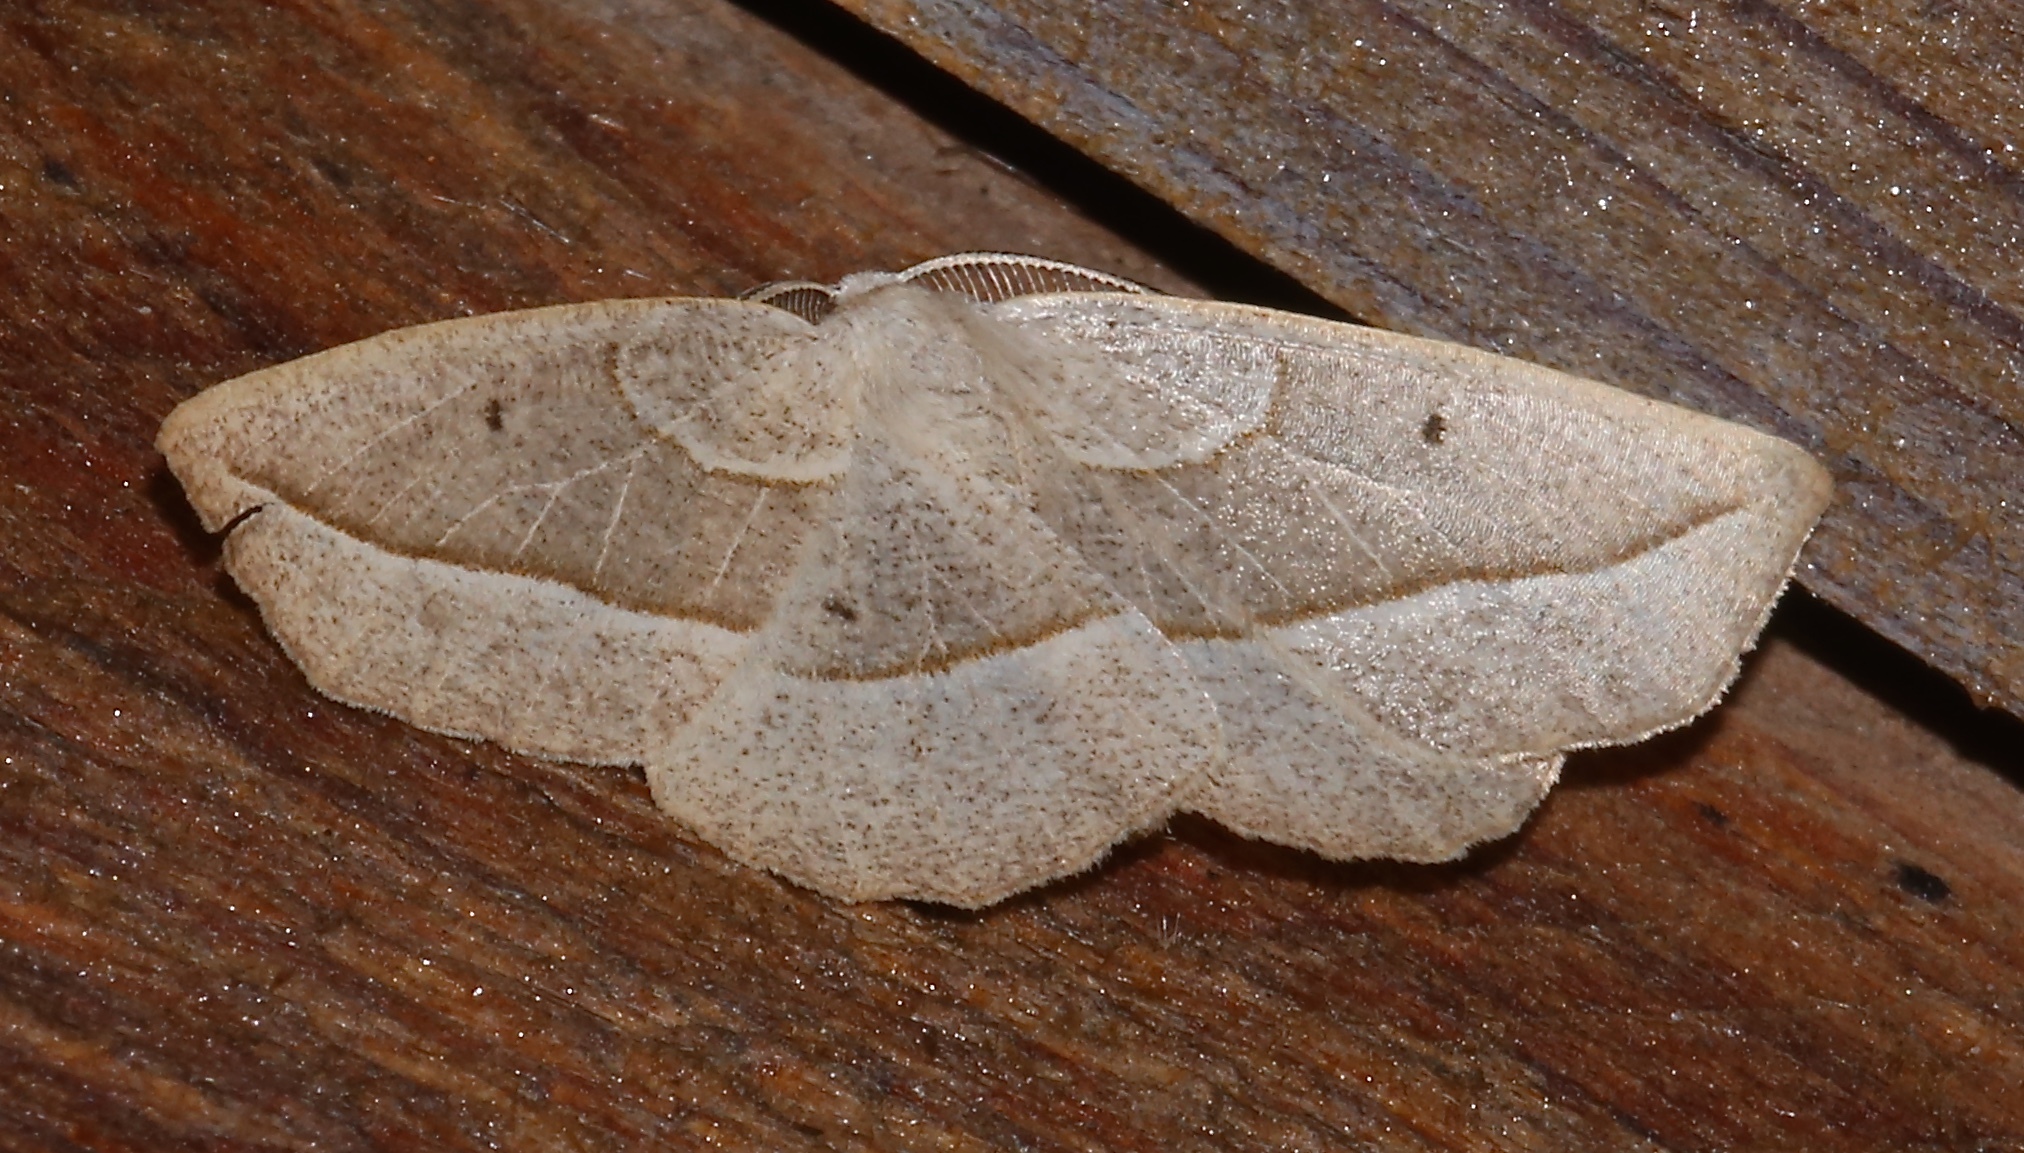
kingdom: Animalia
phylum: Arthropoda
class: Insecta
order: Lepidoptera
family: Geometridae
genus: Eusarca
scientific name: Eusarca confusaria
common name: Confused eusarca
